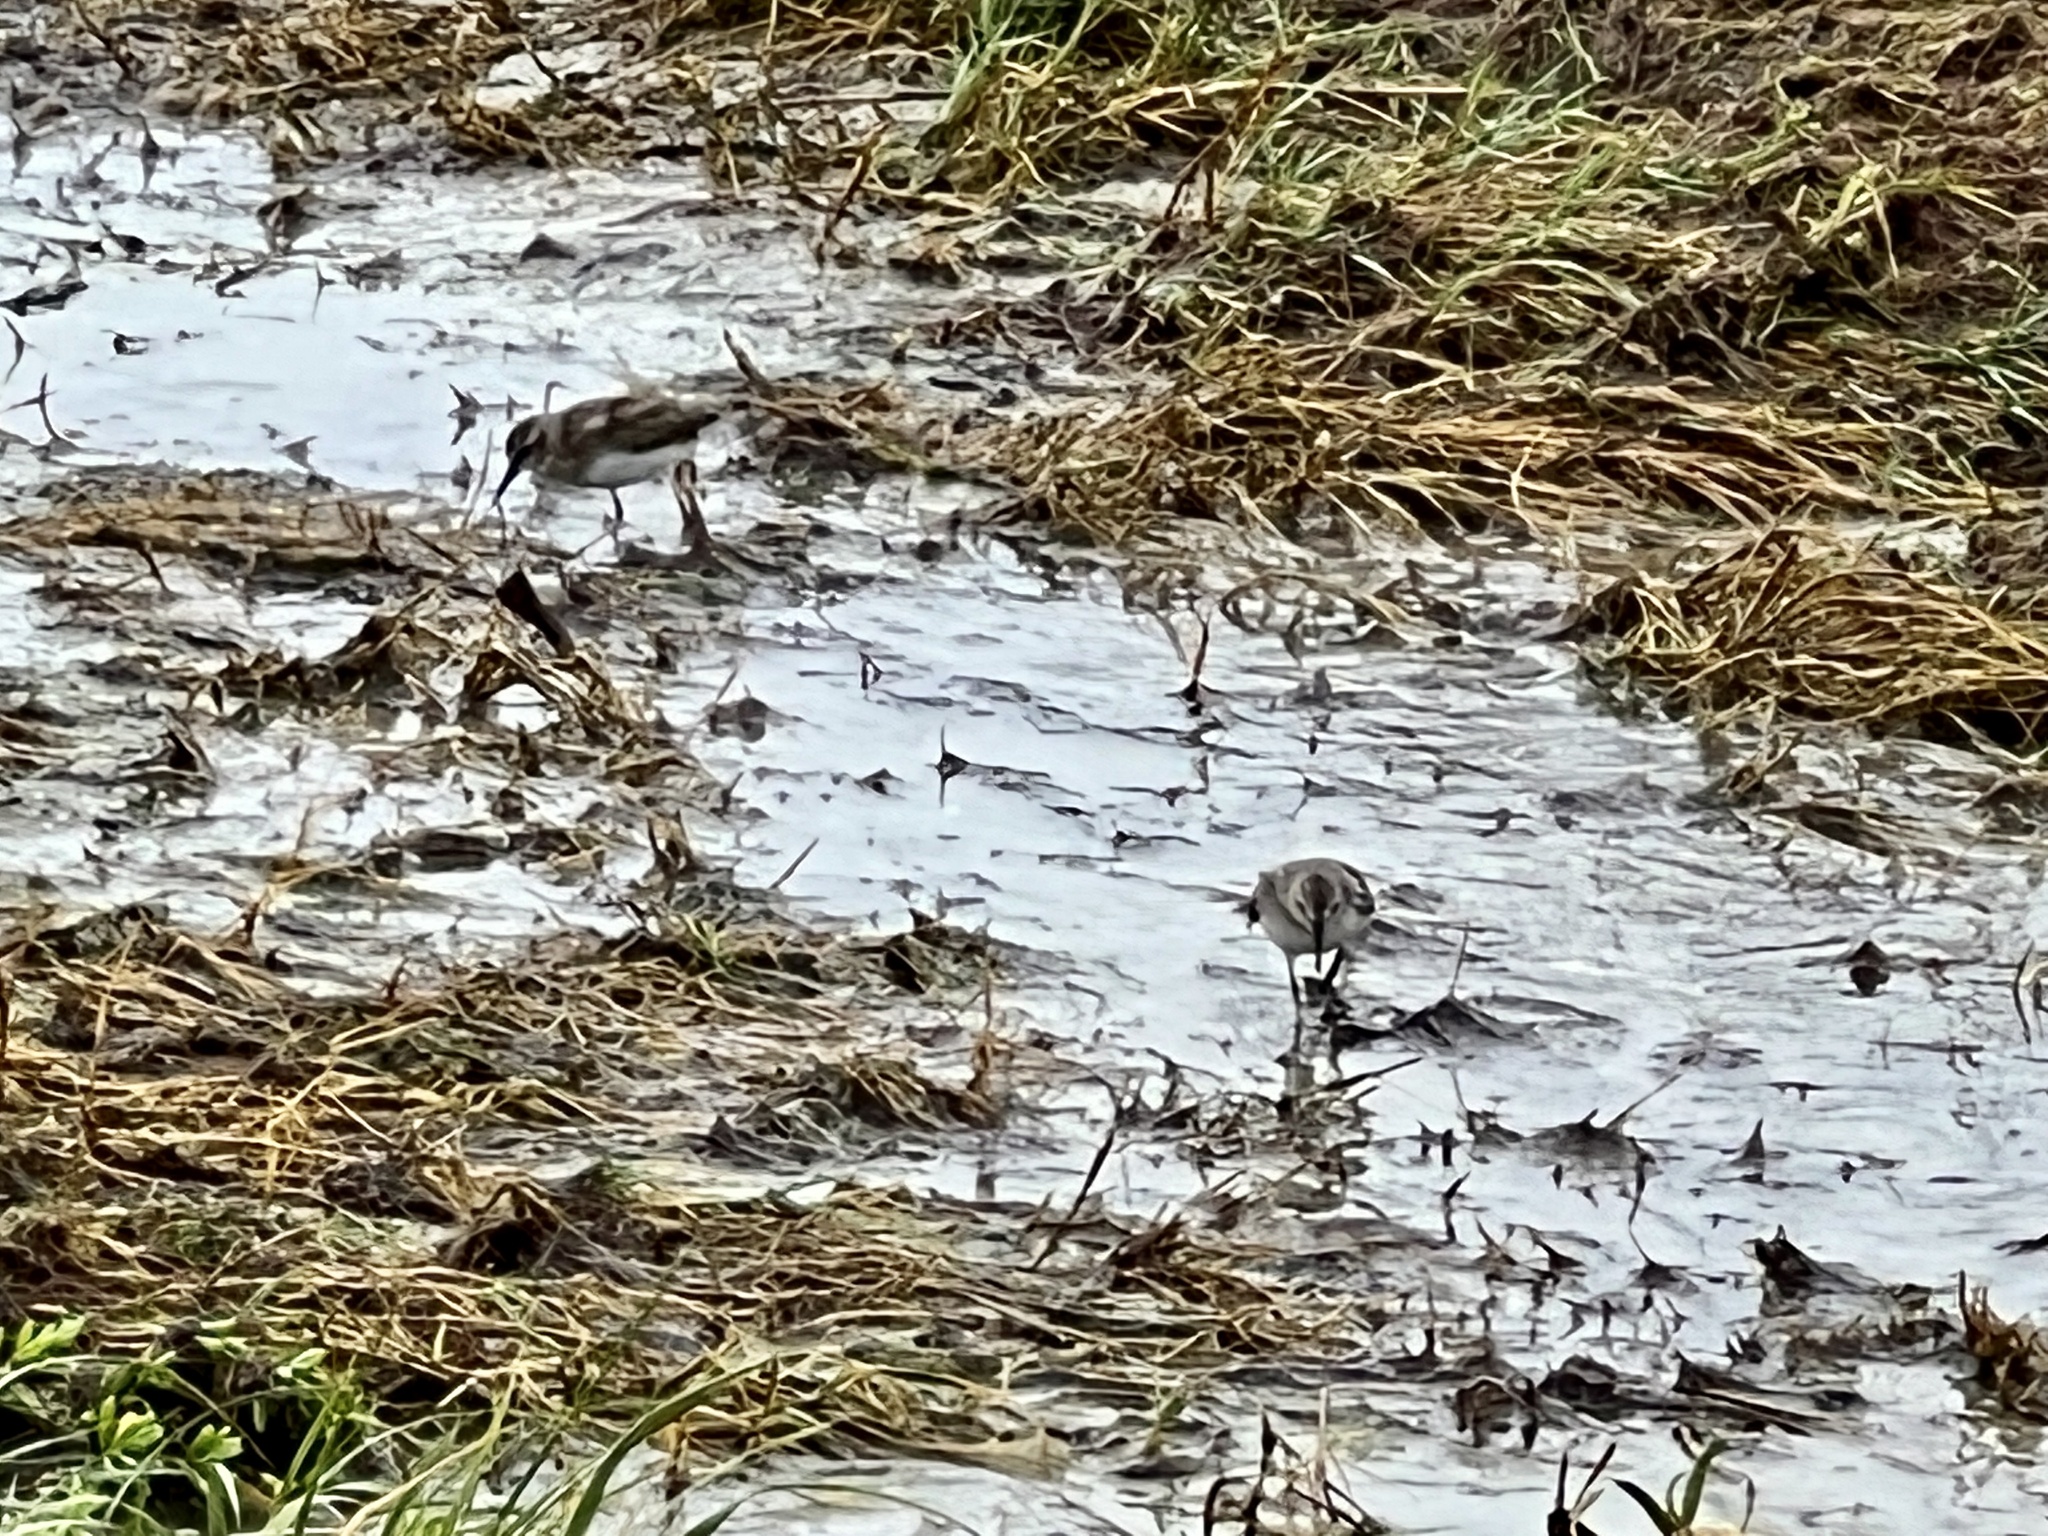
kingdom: Animalia
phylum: Chordata
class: Aves
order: Charadriiformes
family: Scolopacidae
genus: Calidris
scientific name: Calidris minutilla
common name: Least sandpiper
